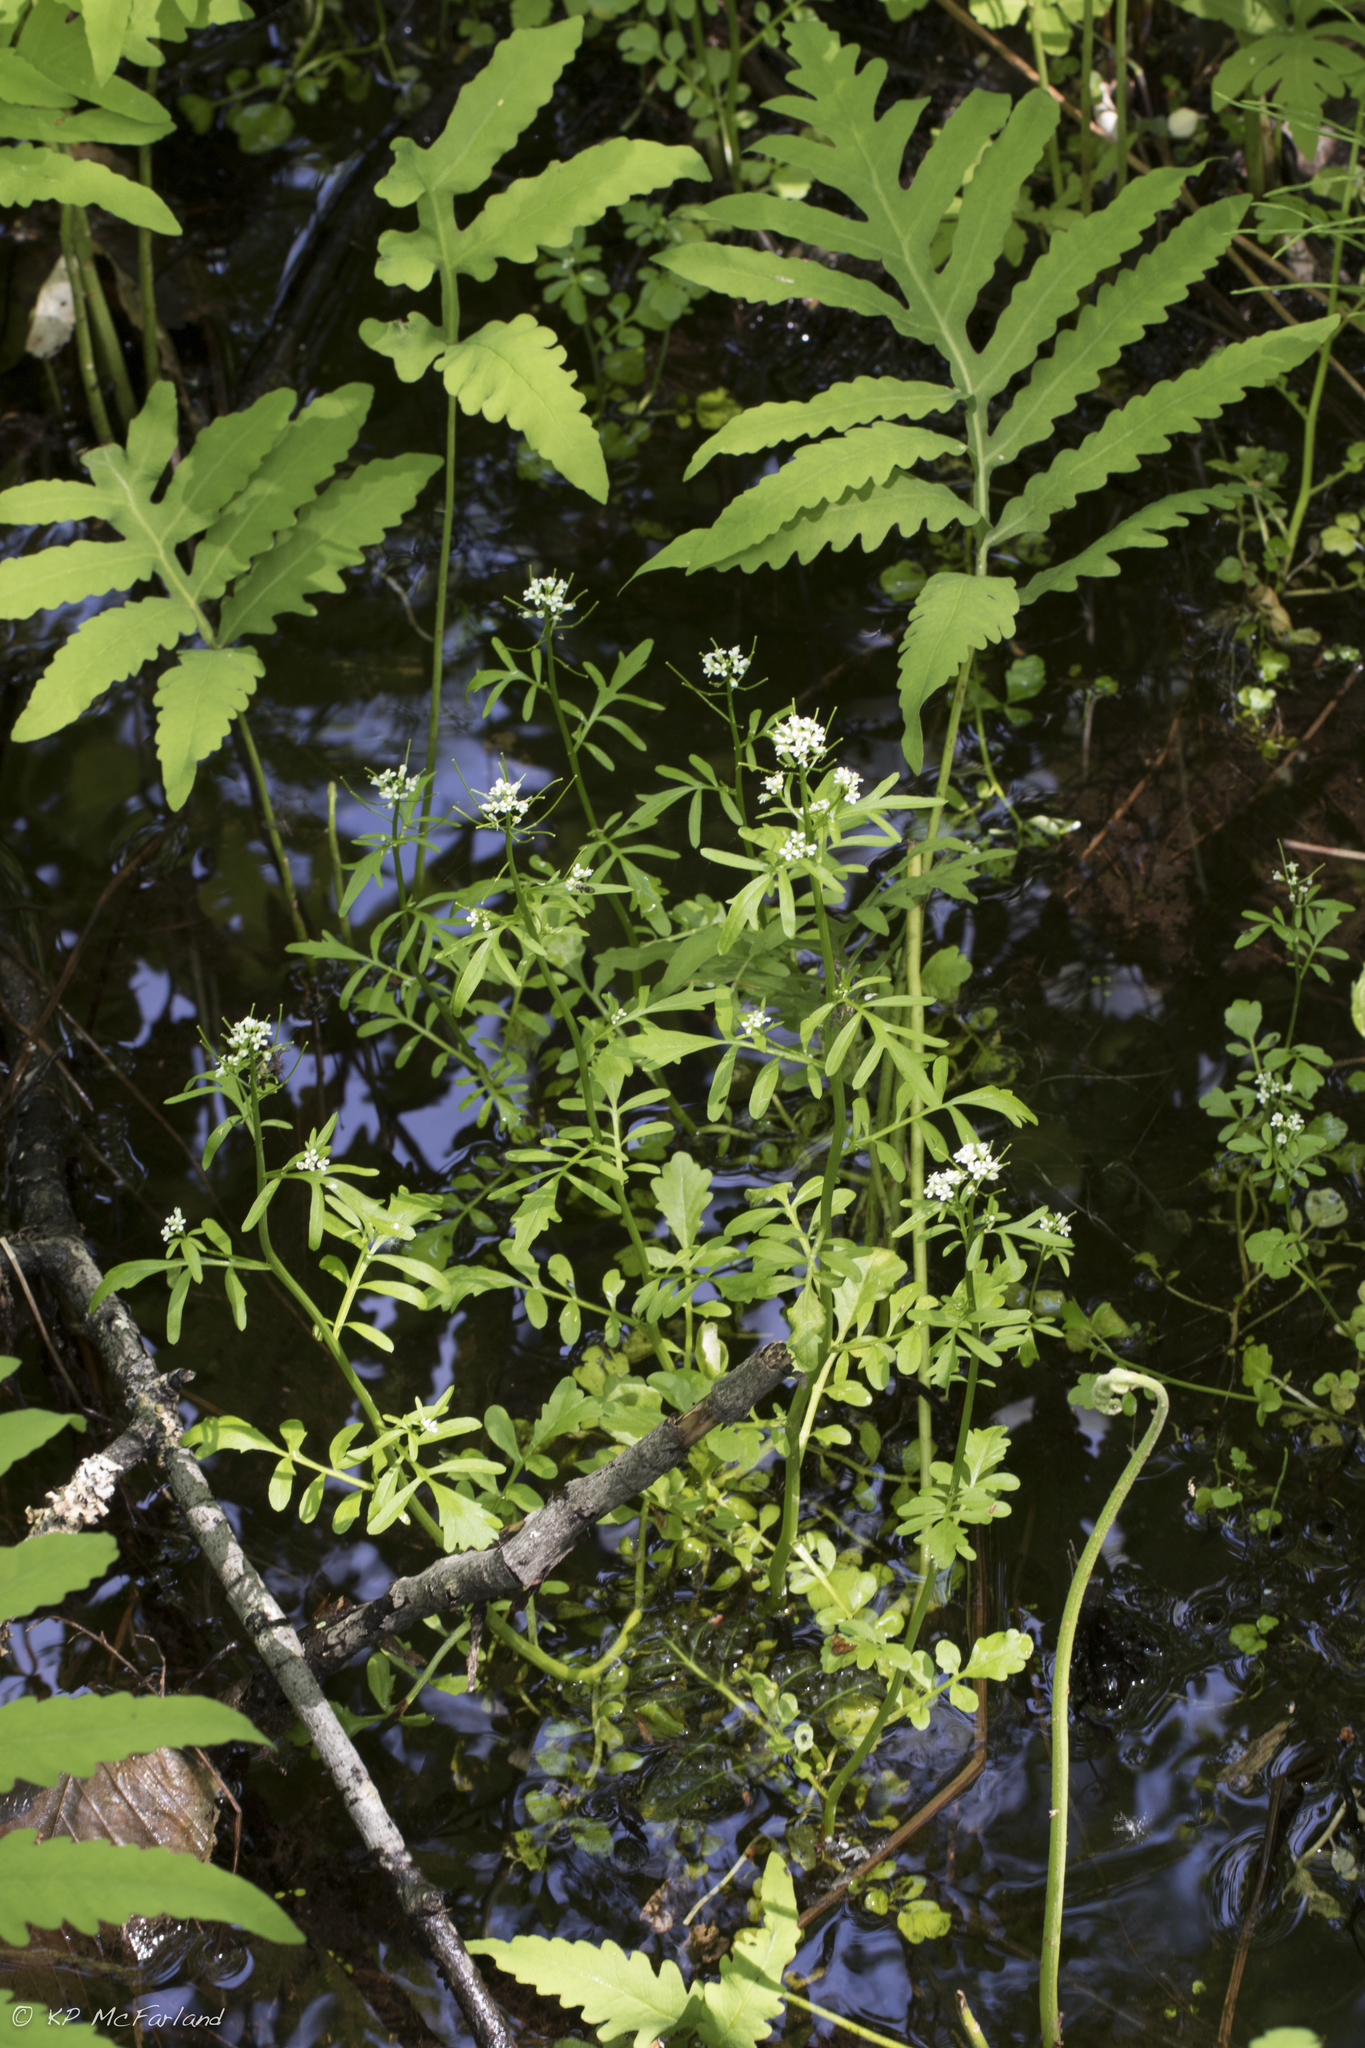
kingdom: Plantae
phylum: Tracheophyta
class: Magnoliopsida
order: Brassicales
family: Brassicaceae
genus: Cardamine
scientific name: Cardamine pensylvanica
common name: Pennsylvania bittercress
